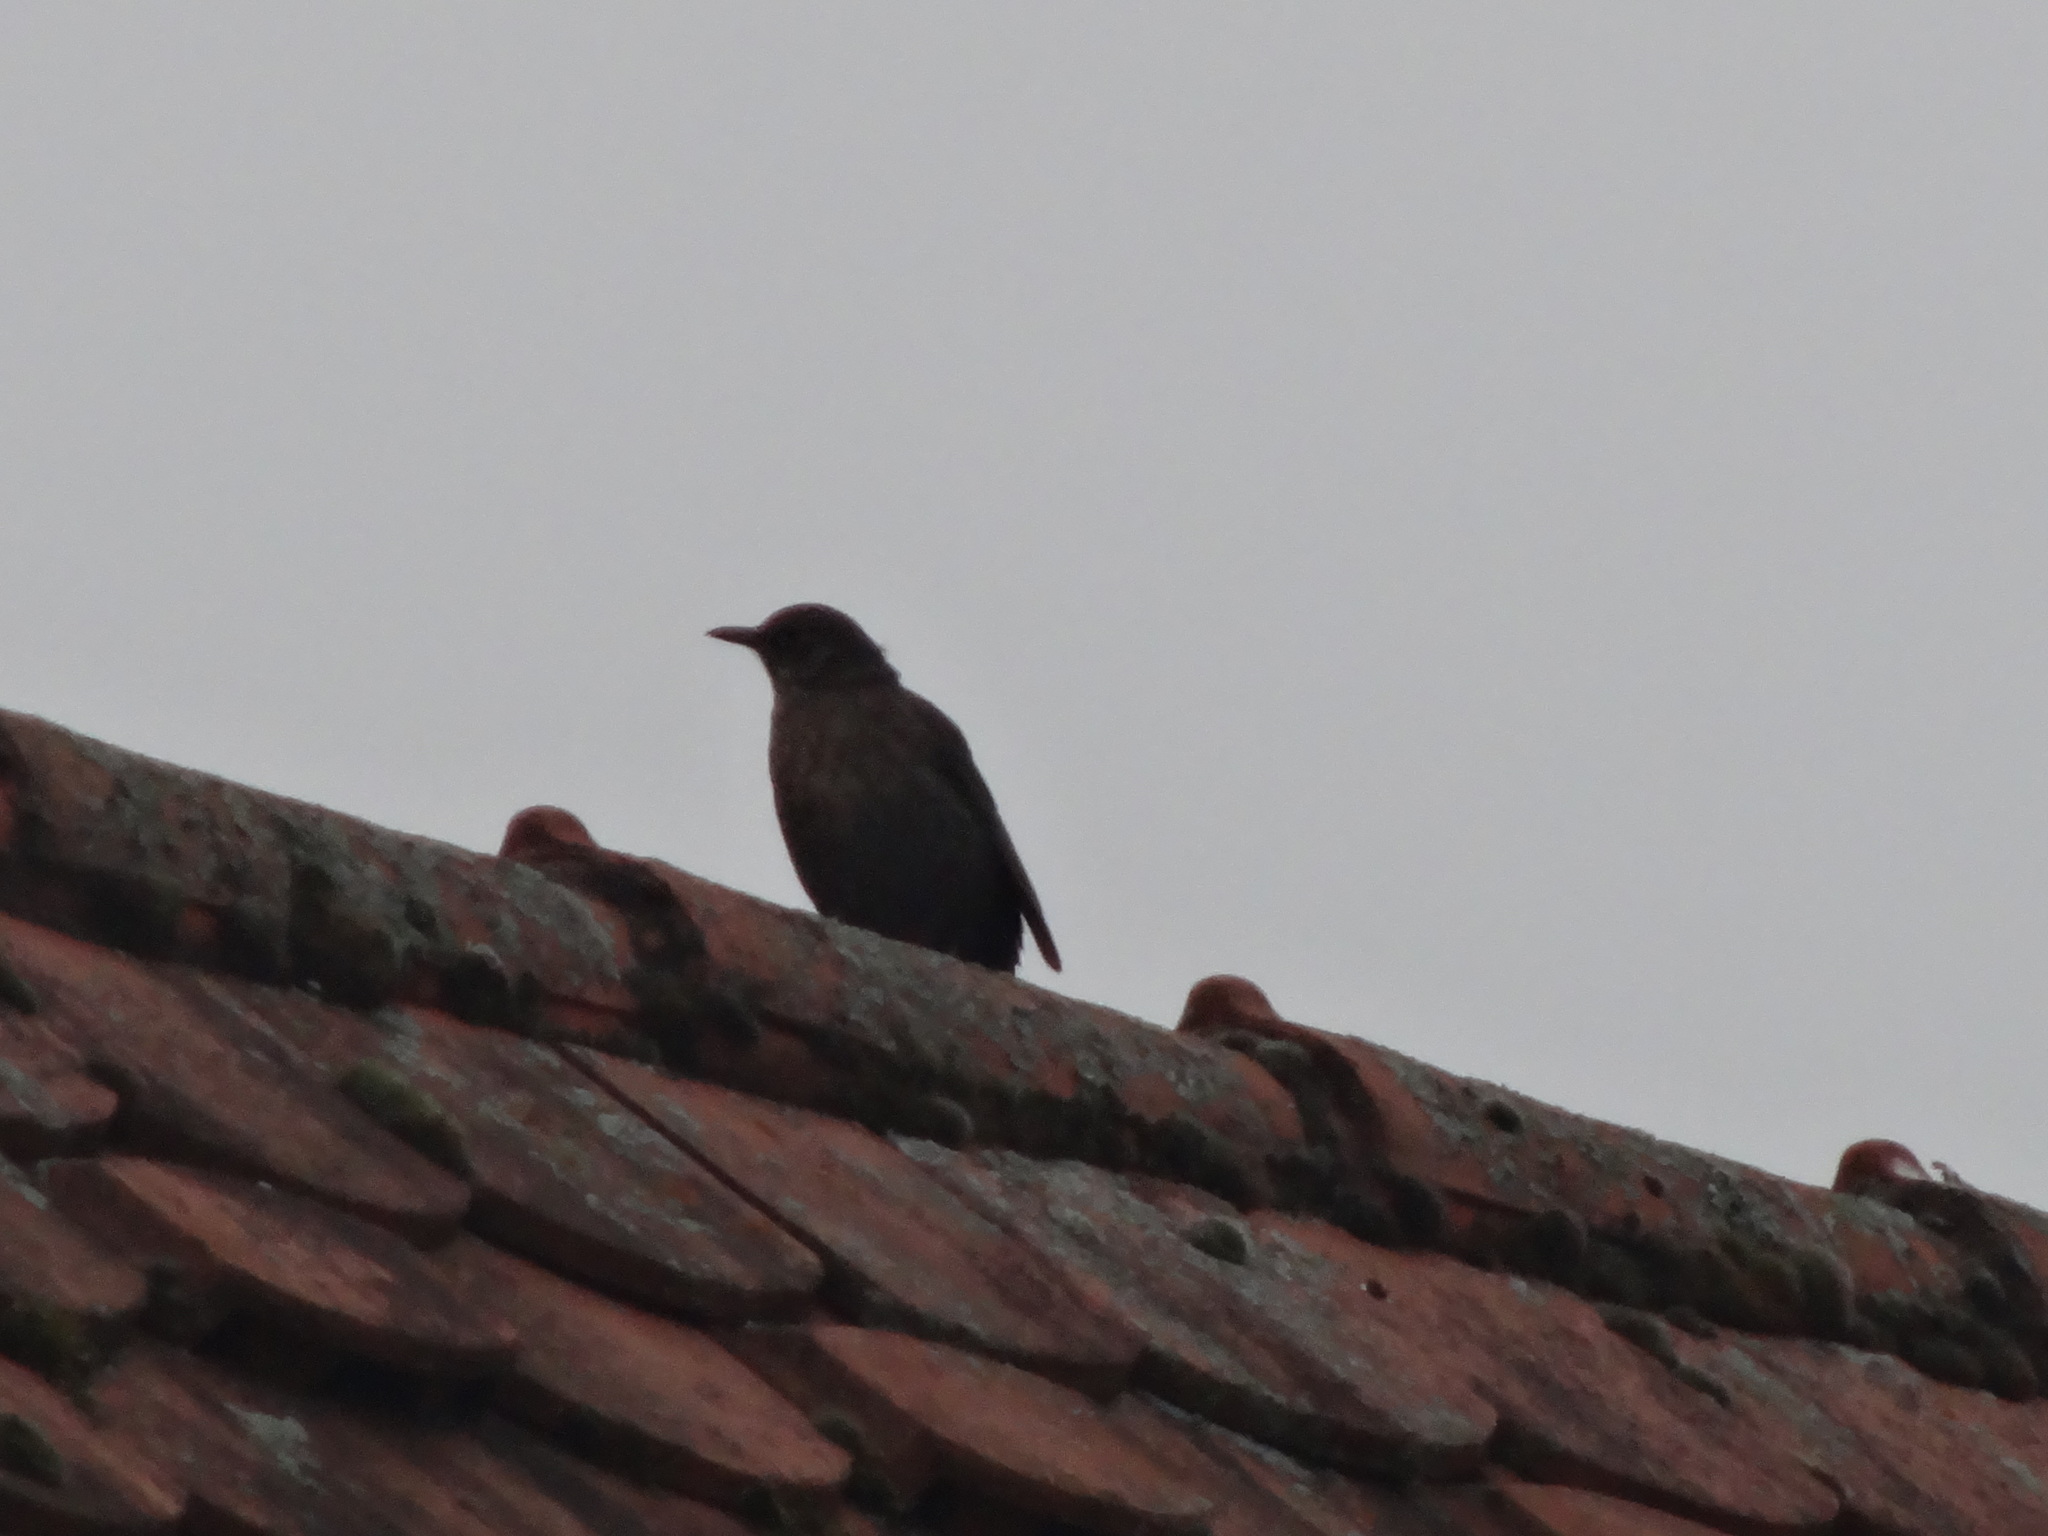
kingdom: Animalia
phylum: Chordata
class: Aves
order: Passeriformes
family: Turdidae
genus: Turdus
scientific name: Turdus merula
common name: Common blackbird
